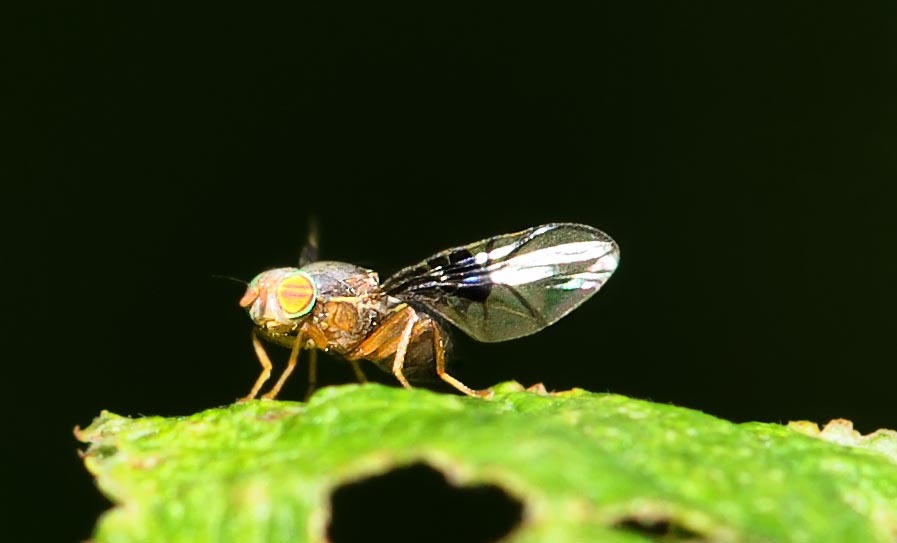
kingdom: Animalia
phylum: Arthropoda
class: Insecta
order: Diptera
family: Tephritidae
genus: Anomoia
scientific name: Anomoia purmunda
